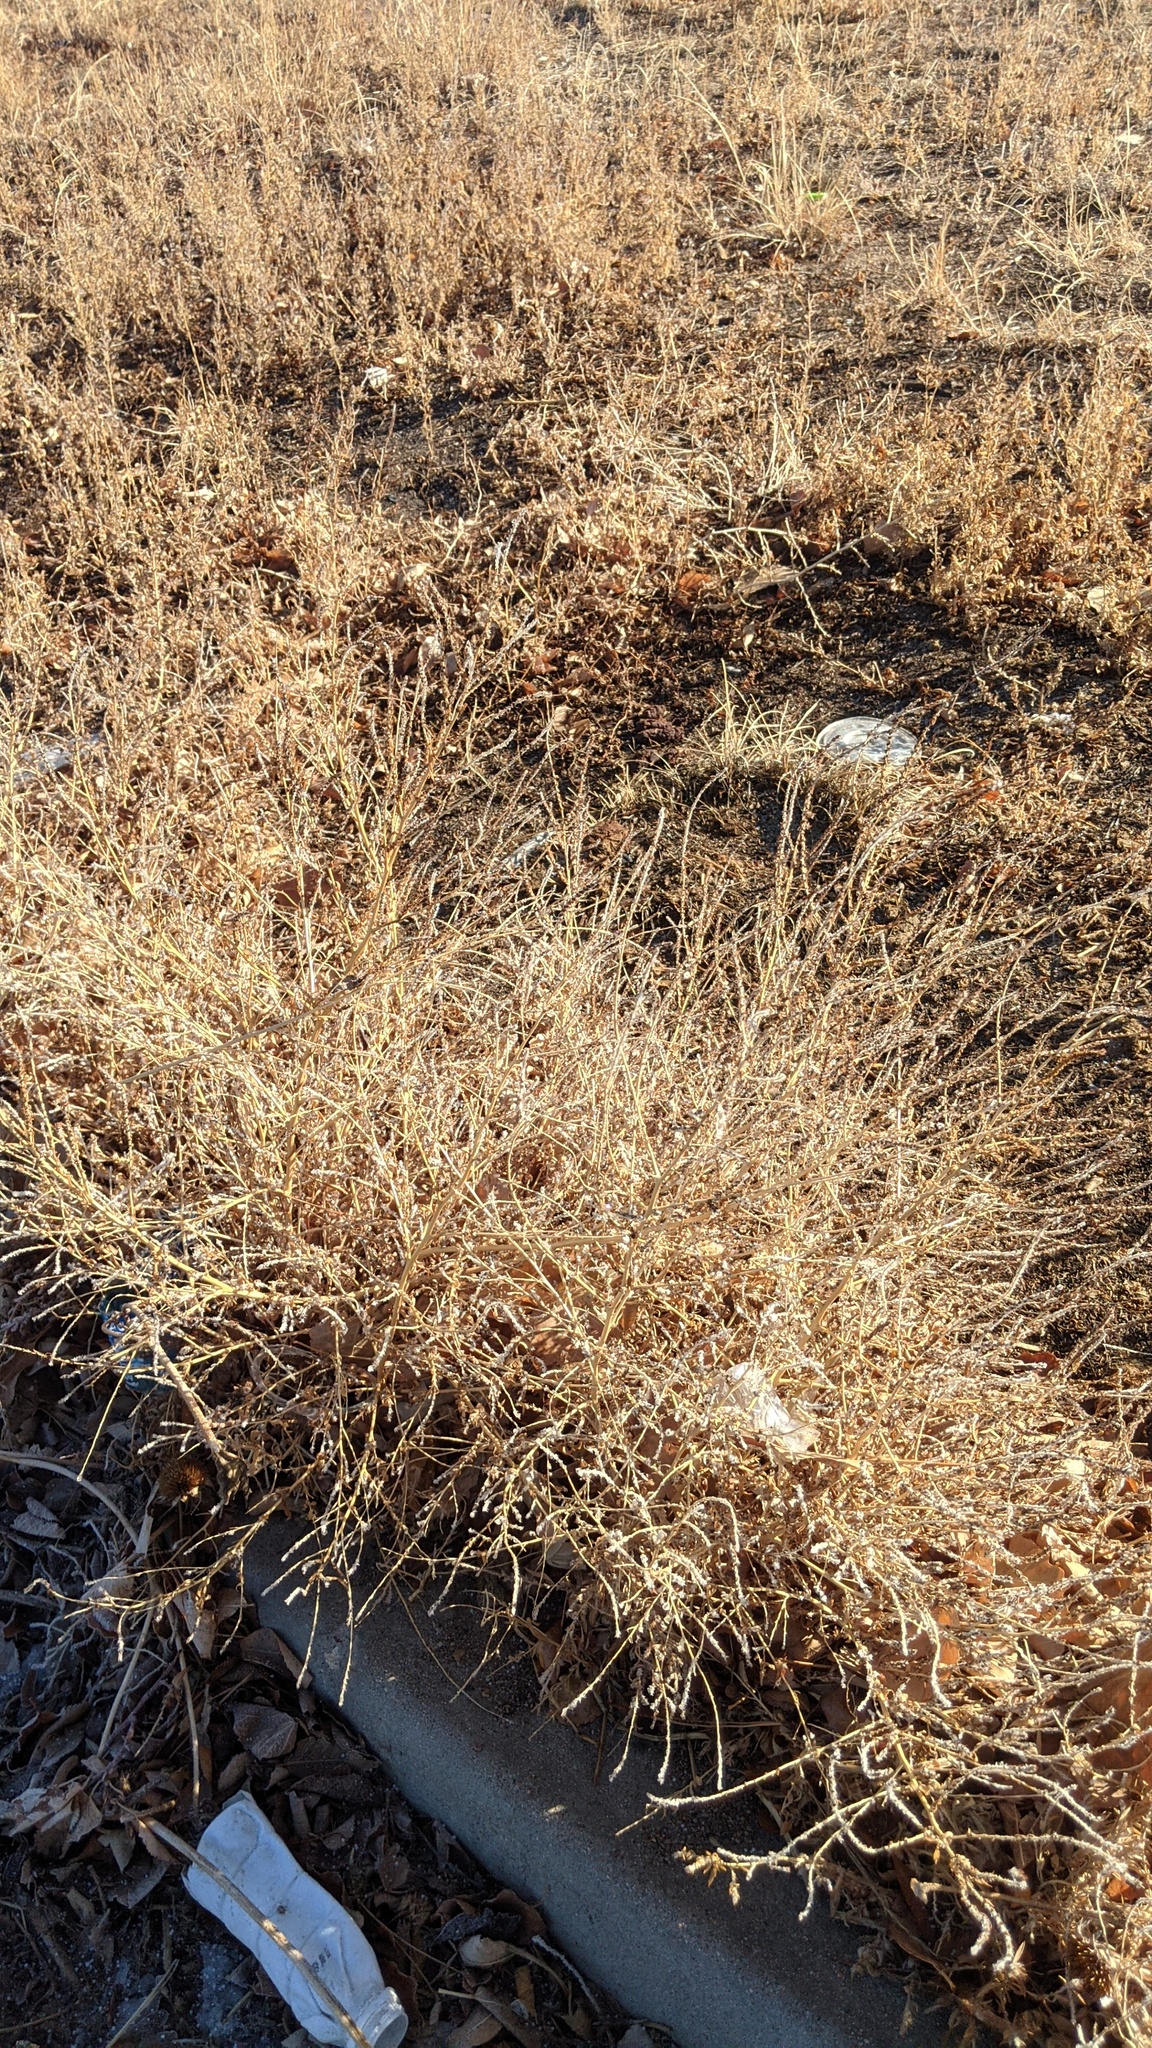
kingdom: Plantae
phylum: Tracheophyta
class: Magnoliopsida
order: Caryophyllales
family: Amaranthaceae
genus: Bassia
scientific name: Bassia scoparia
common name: Belvedere
